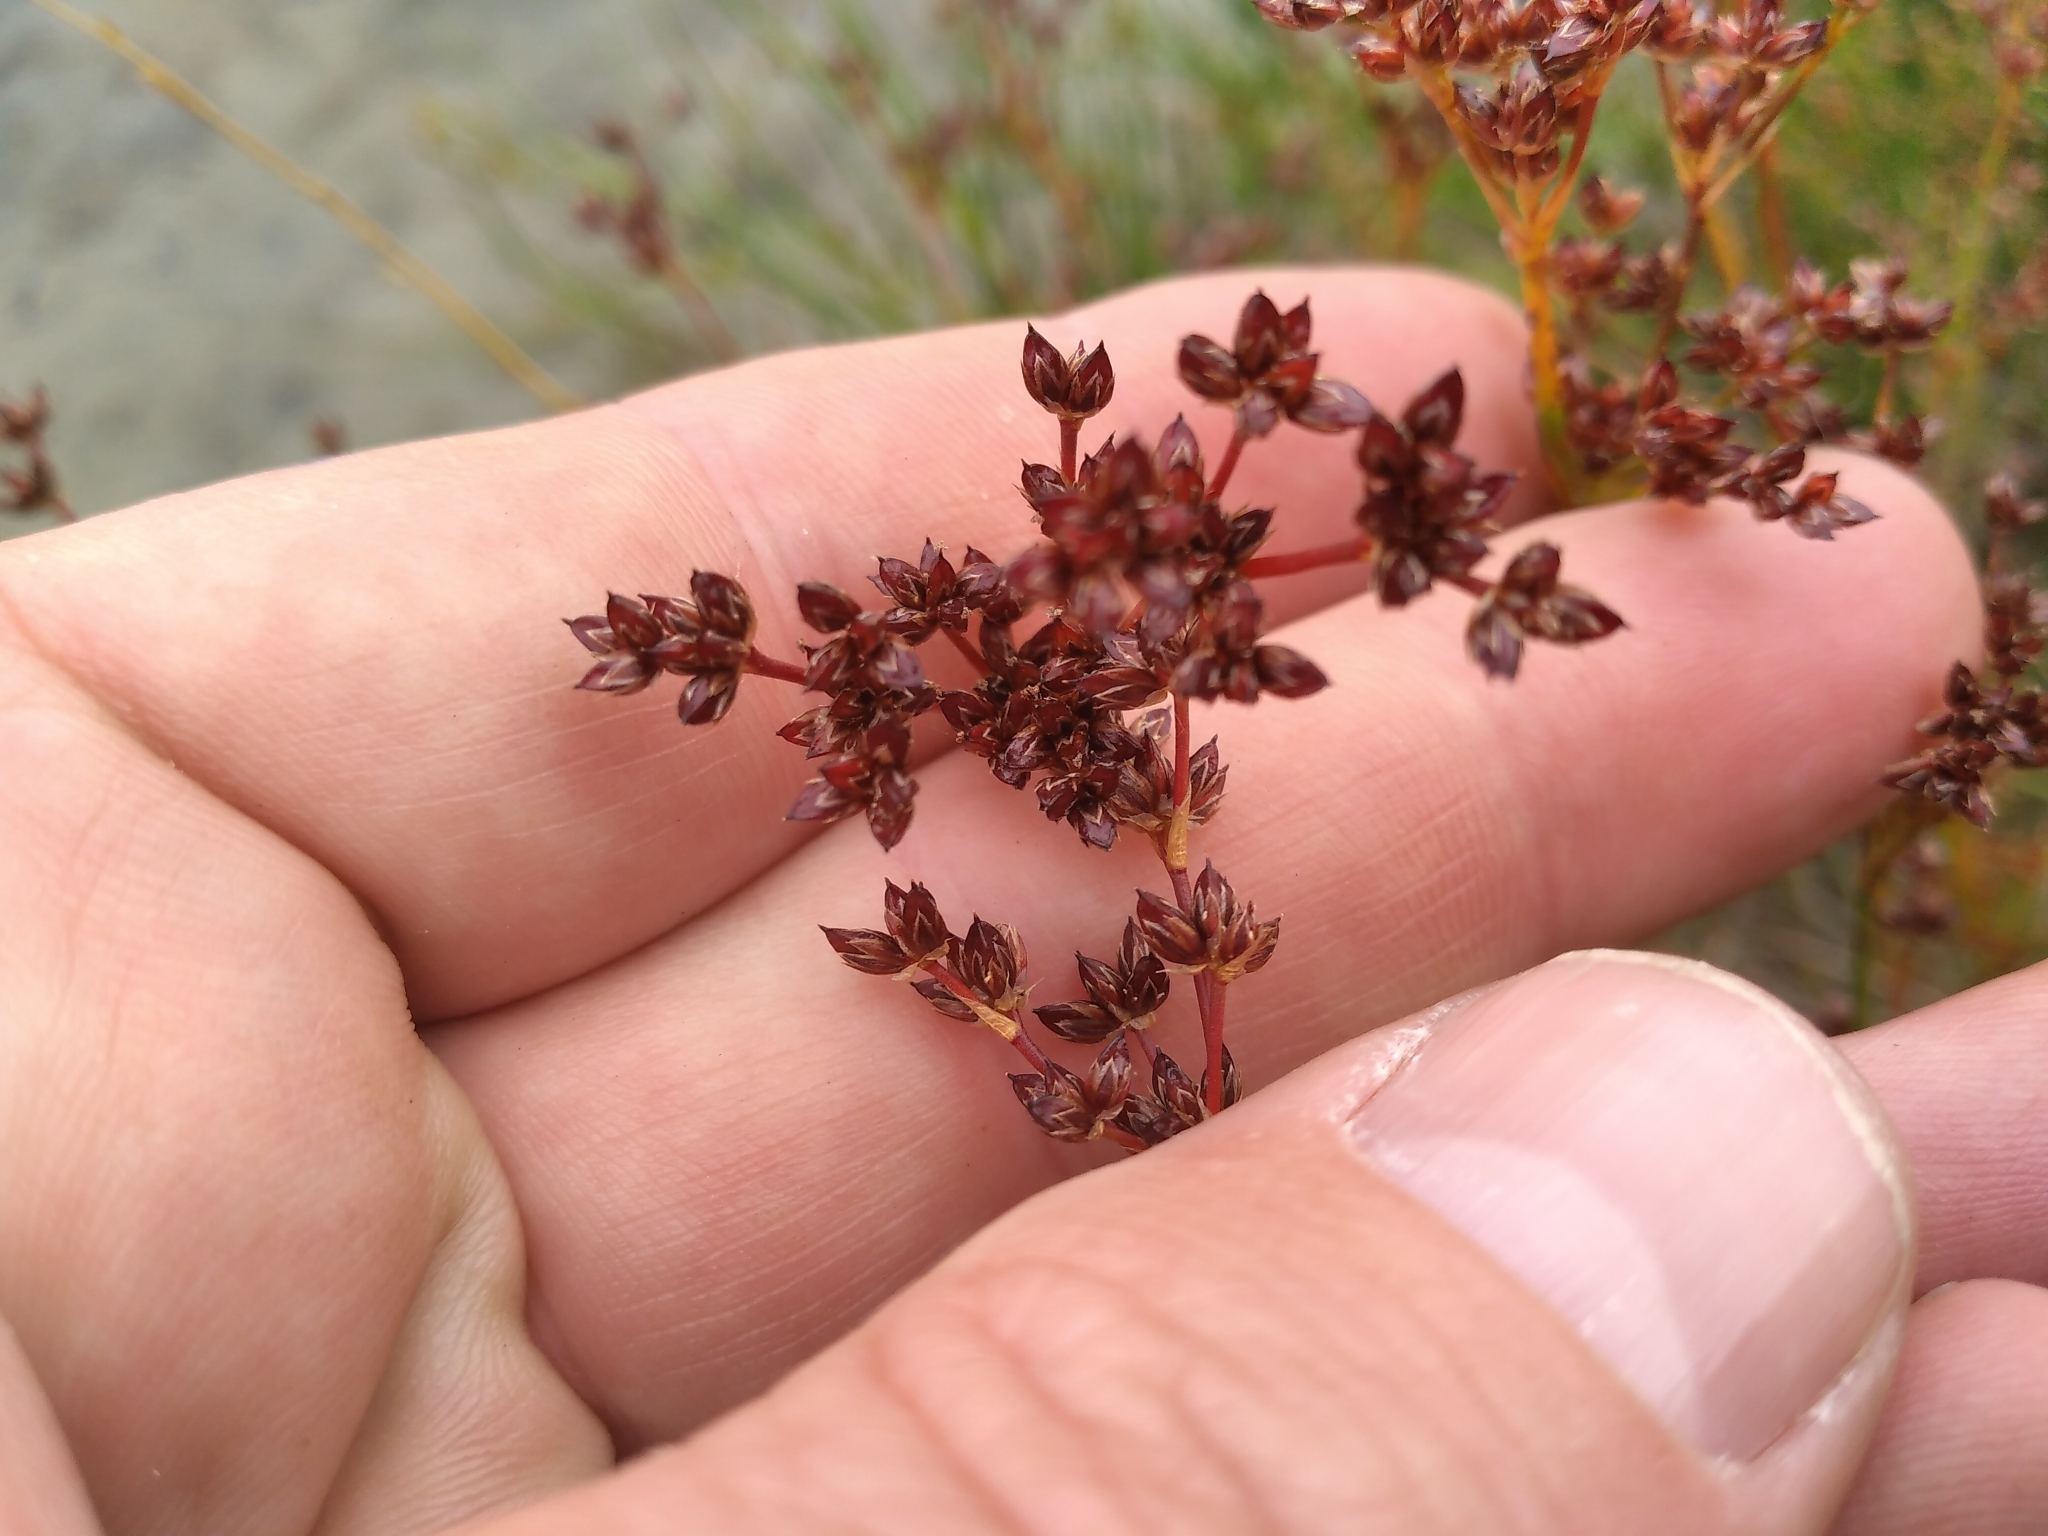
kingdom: Plantae
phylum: Tracheophyta
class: Liliopsida
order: Poales
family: Juncaceae
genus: Juncus
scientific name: Juncus articulatus
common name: Jointed rush
